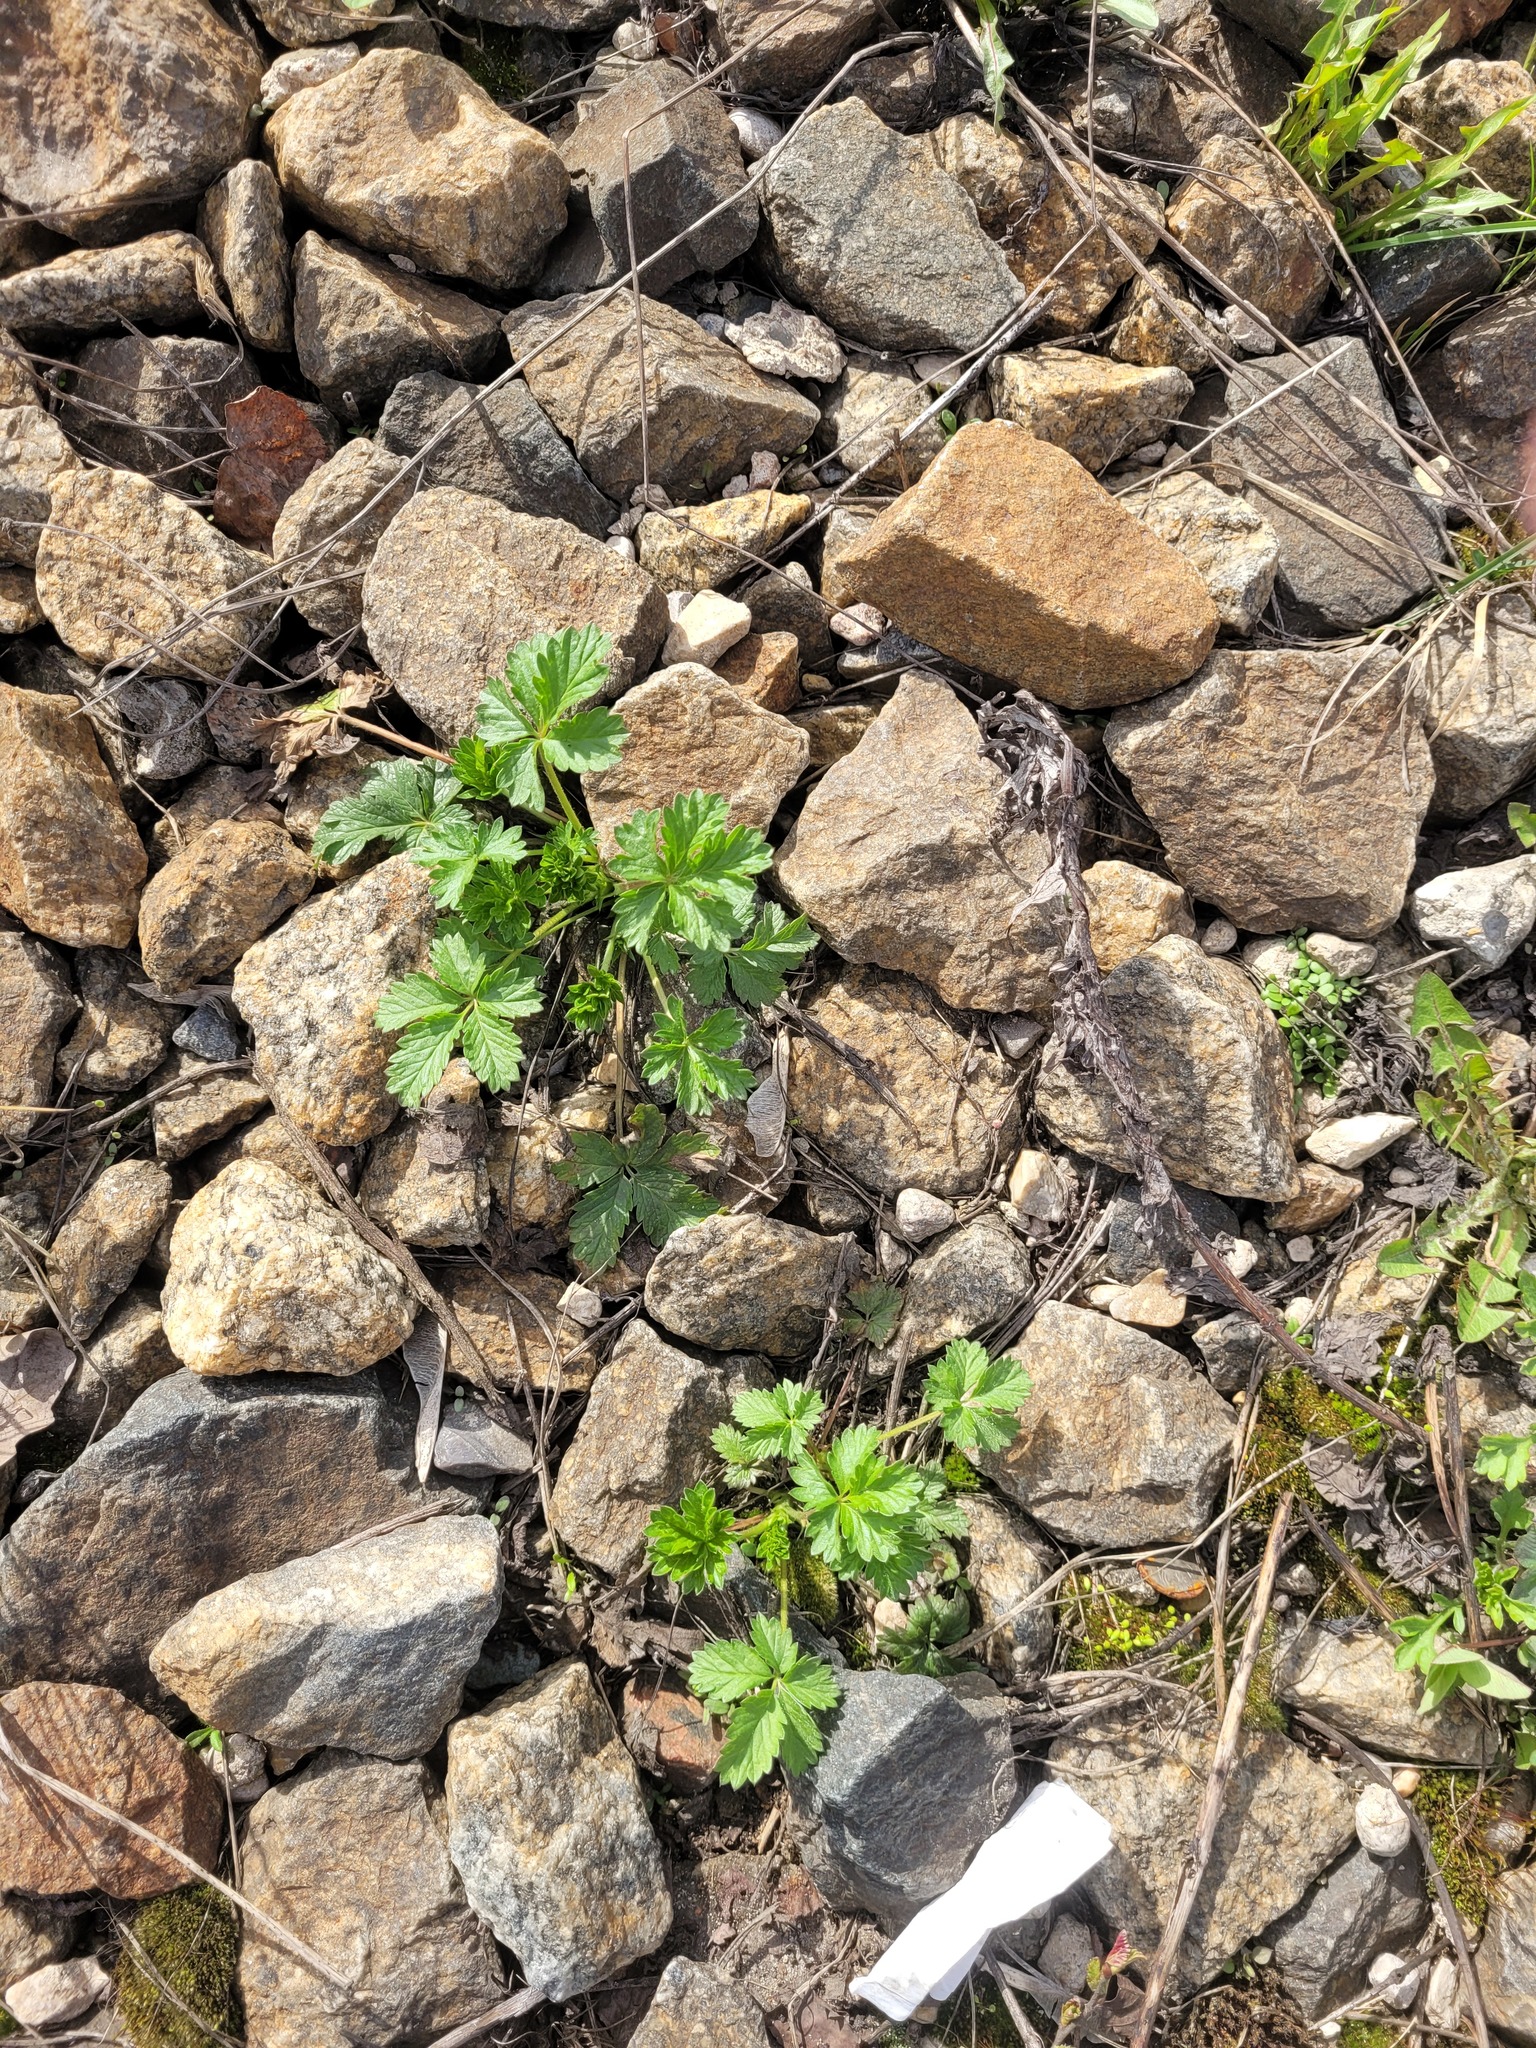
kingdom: Plantae
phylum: Tracheophyta
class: Magnoliopsida
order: Rosales
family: Rosaceae
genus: Potentilla
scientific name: Potentilla intermedia
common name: Downy cinquefoil
